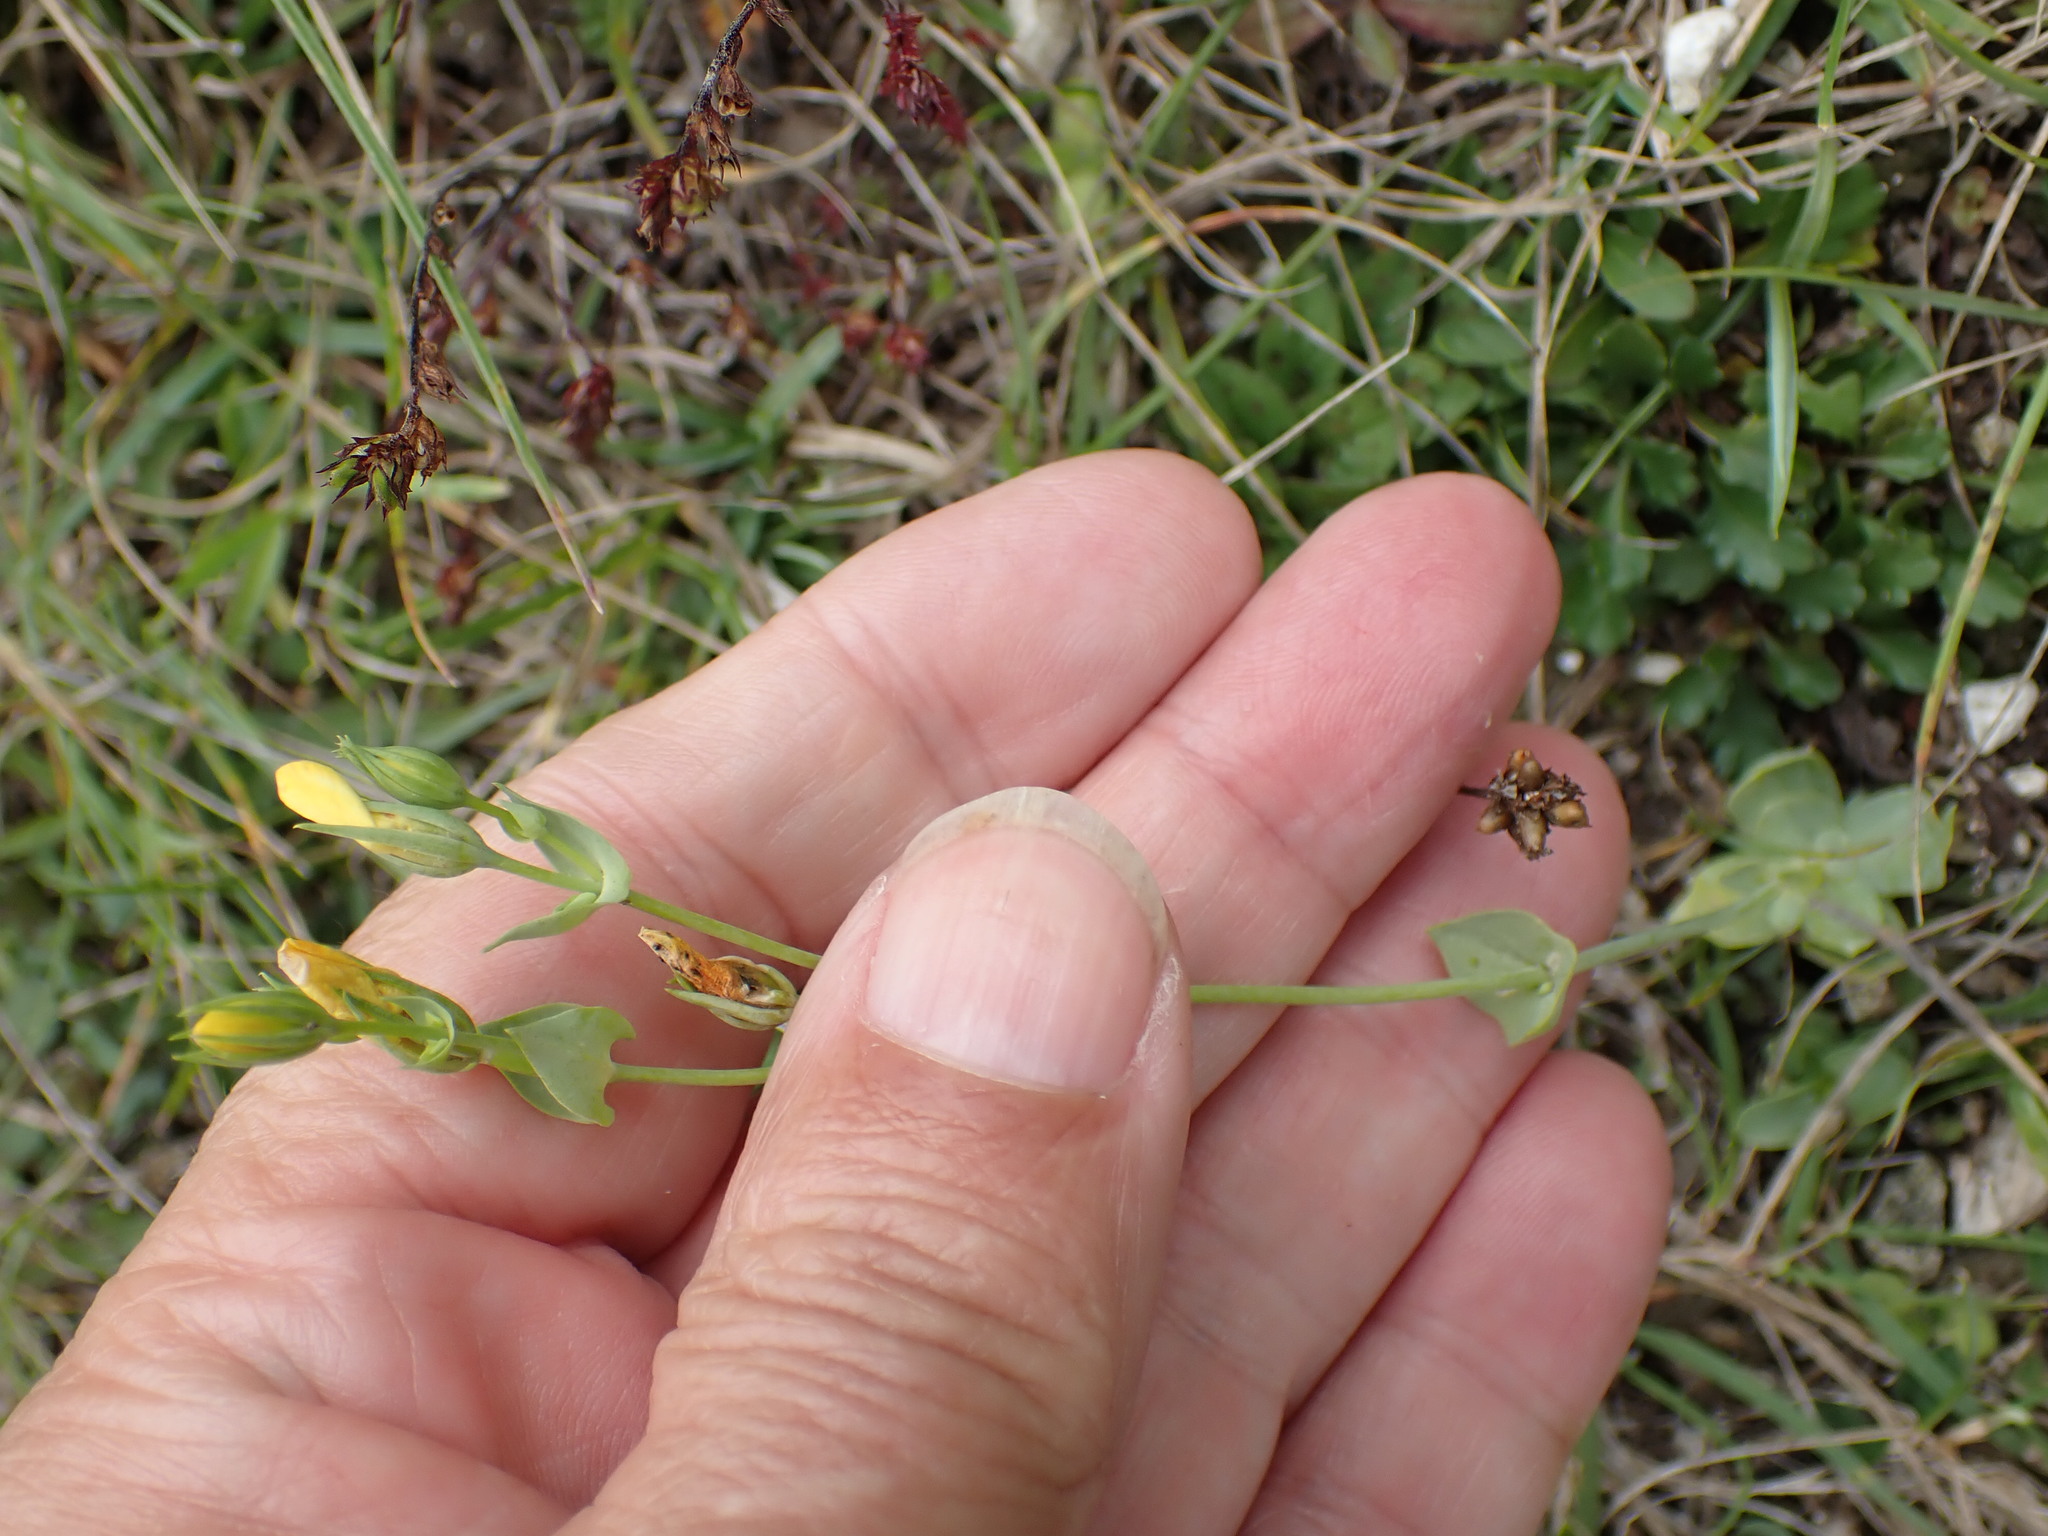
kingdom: Plantae
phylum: Tracheophyta
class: Magnoliopsida
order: Gentianales
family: Gentianaceae
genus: Blackstonia
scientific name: Blackstonia perfoliata
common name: Yellow-wort
